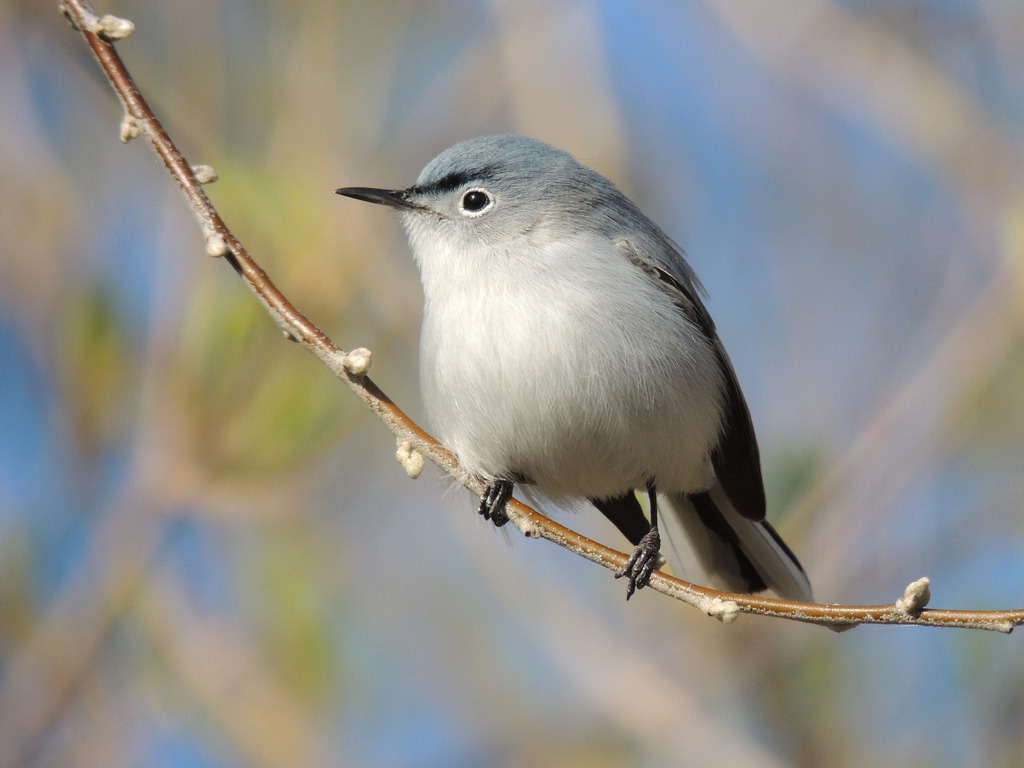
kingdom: Animalia
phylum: Chordata
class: Aves
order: Passeriformes
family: Polioptilidae
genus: Polioptila
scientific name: Polioptila caerulea
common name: Blue-gray gnatcatcher
